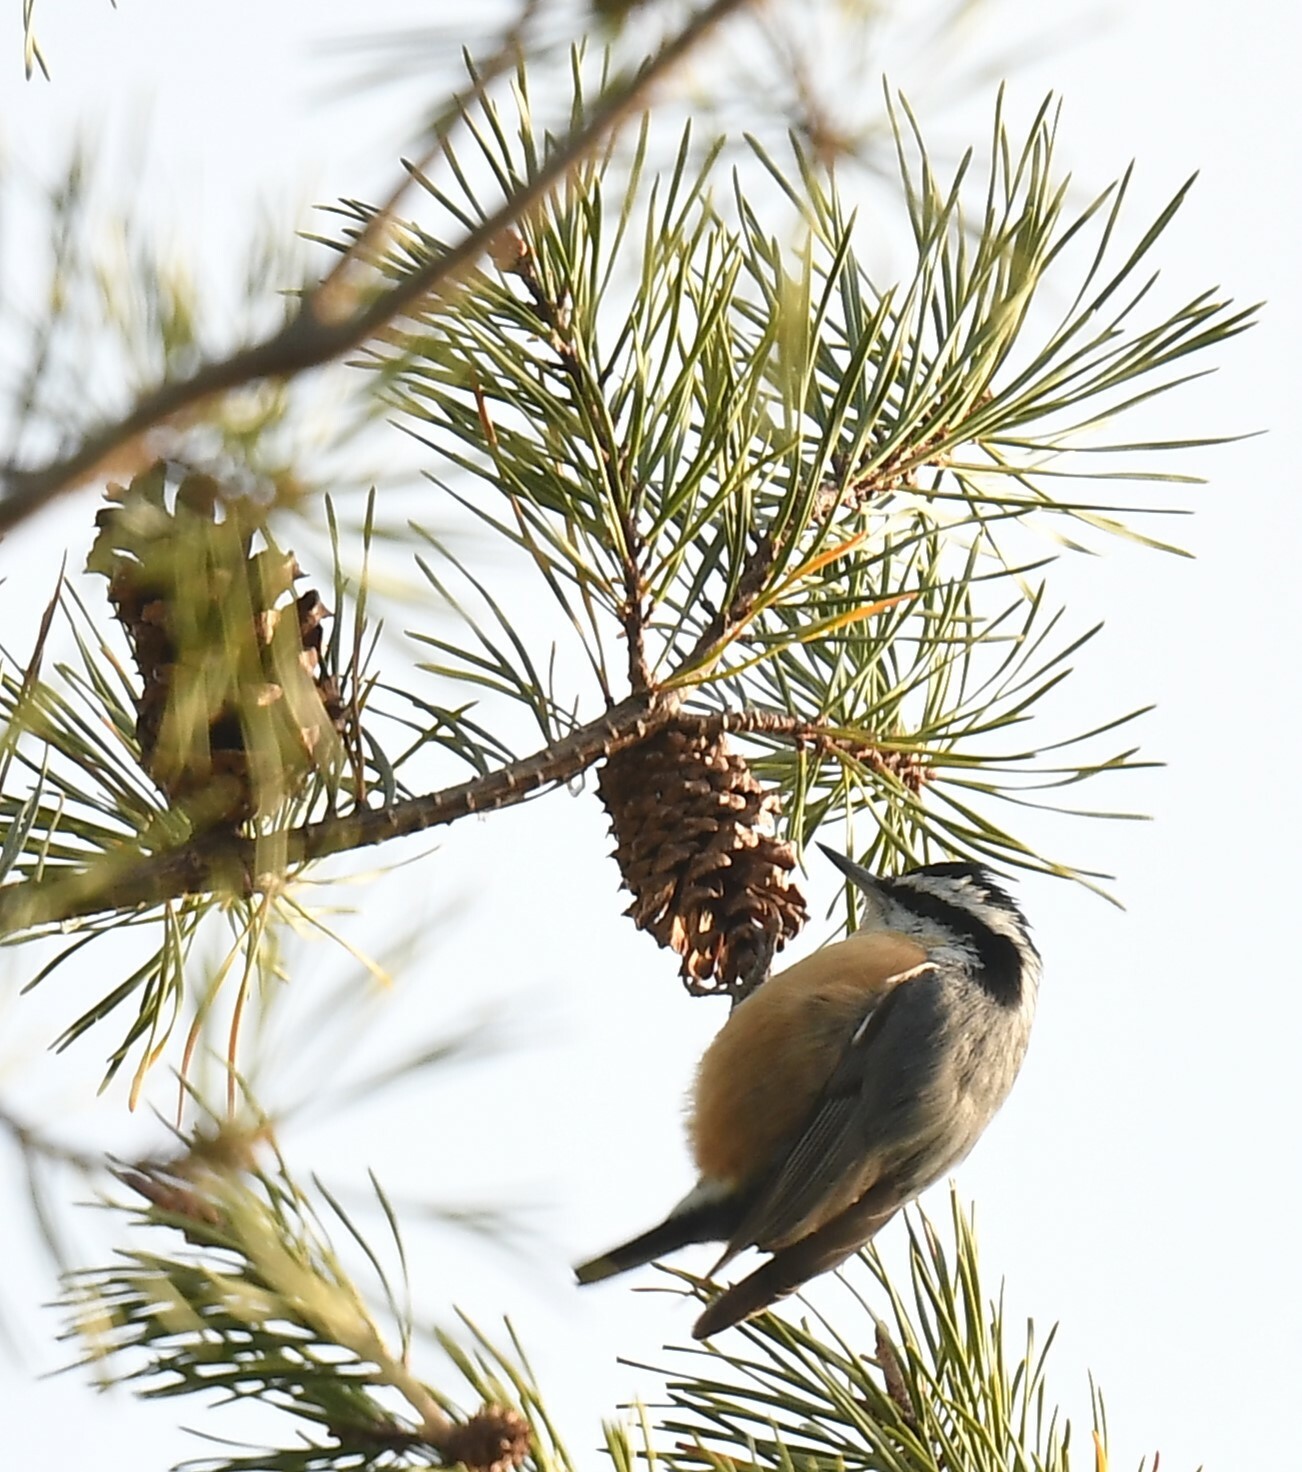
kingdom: Animalia
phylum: Chordata
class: Aves
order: Passeriformes
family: Sittidae
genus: Sitta
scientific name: Sitta canadensis
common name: Red-breasted nuthatch
